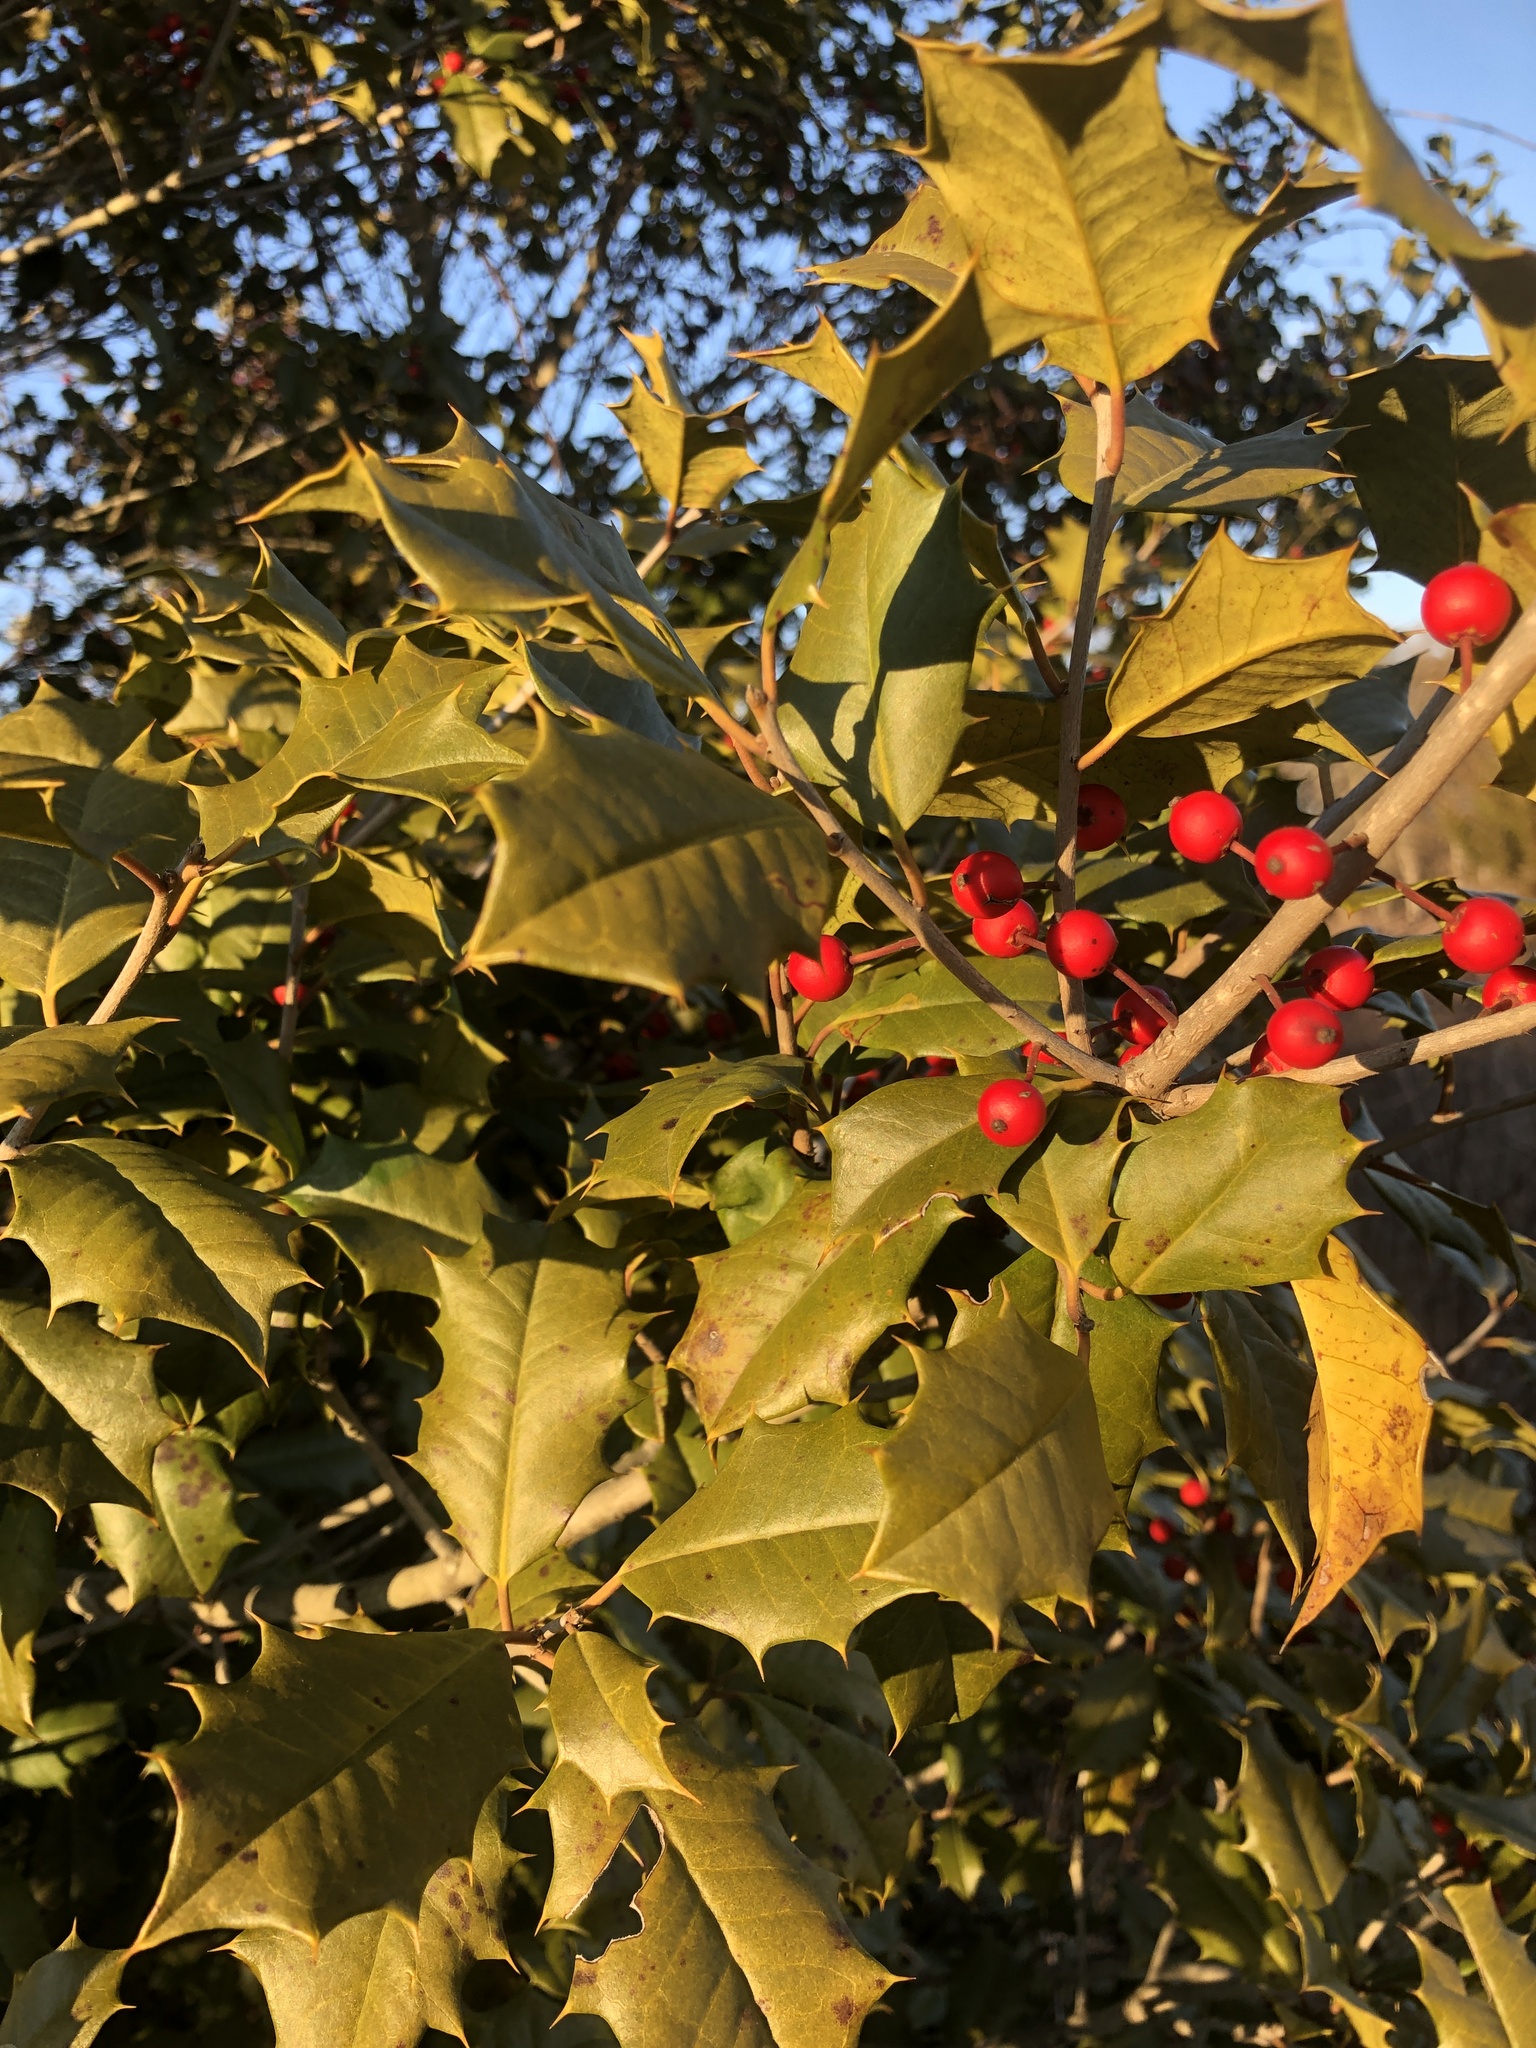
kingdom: Plantae
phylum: Tracheophyta
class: Magnoliopsida
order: Aquifoliales
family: Aquifoliaceae
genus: Ilex
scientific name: Ilex opaca
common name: American holly
